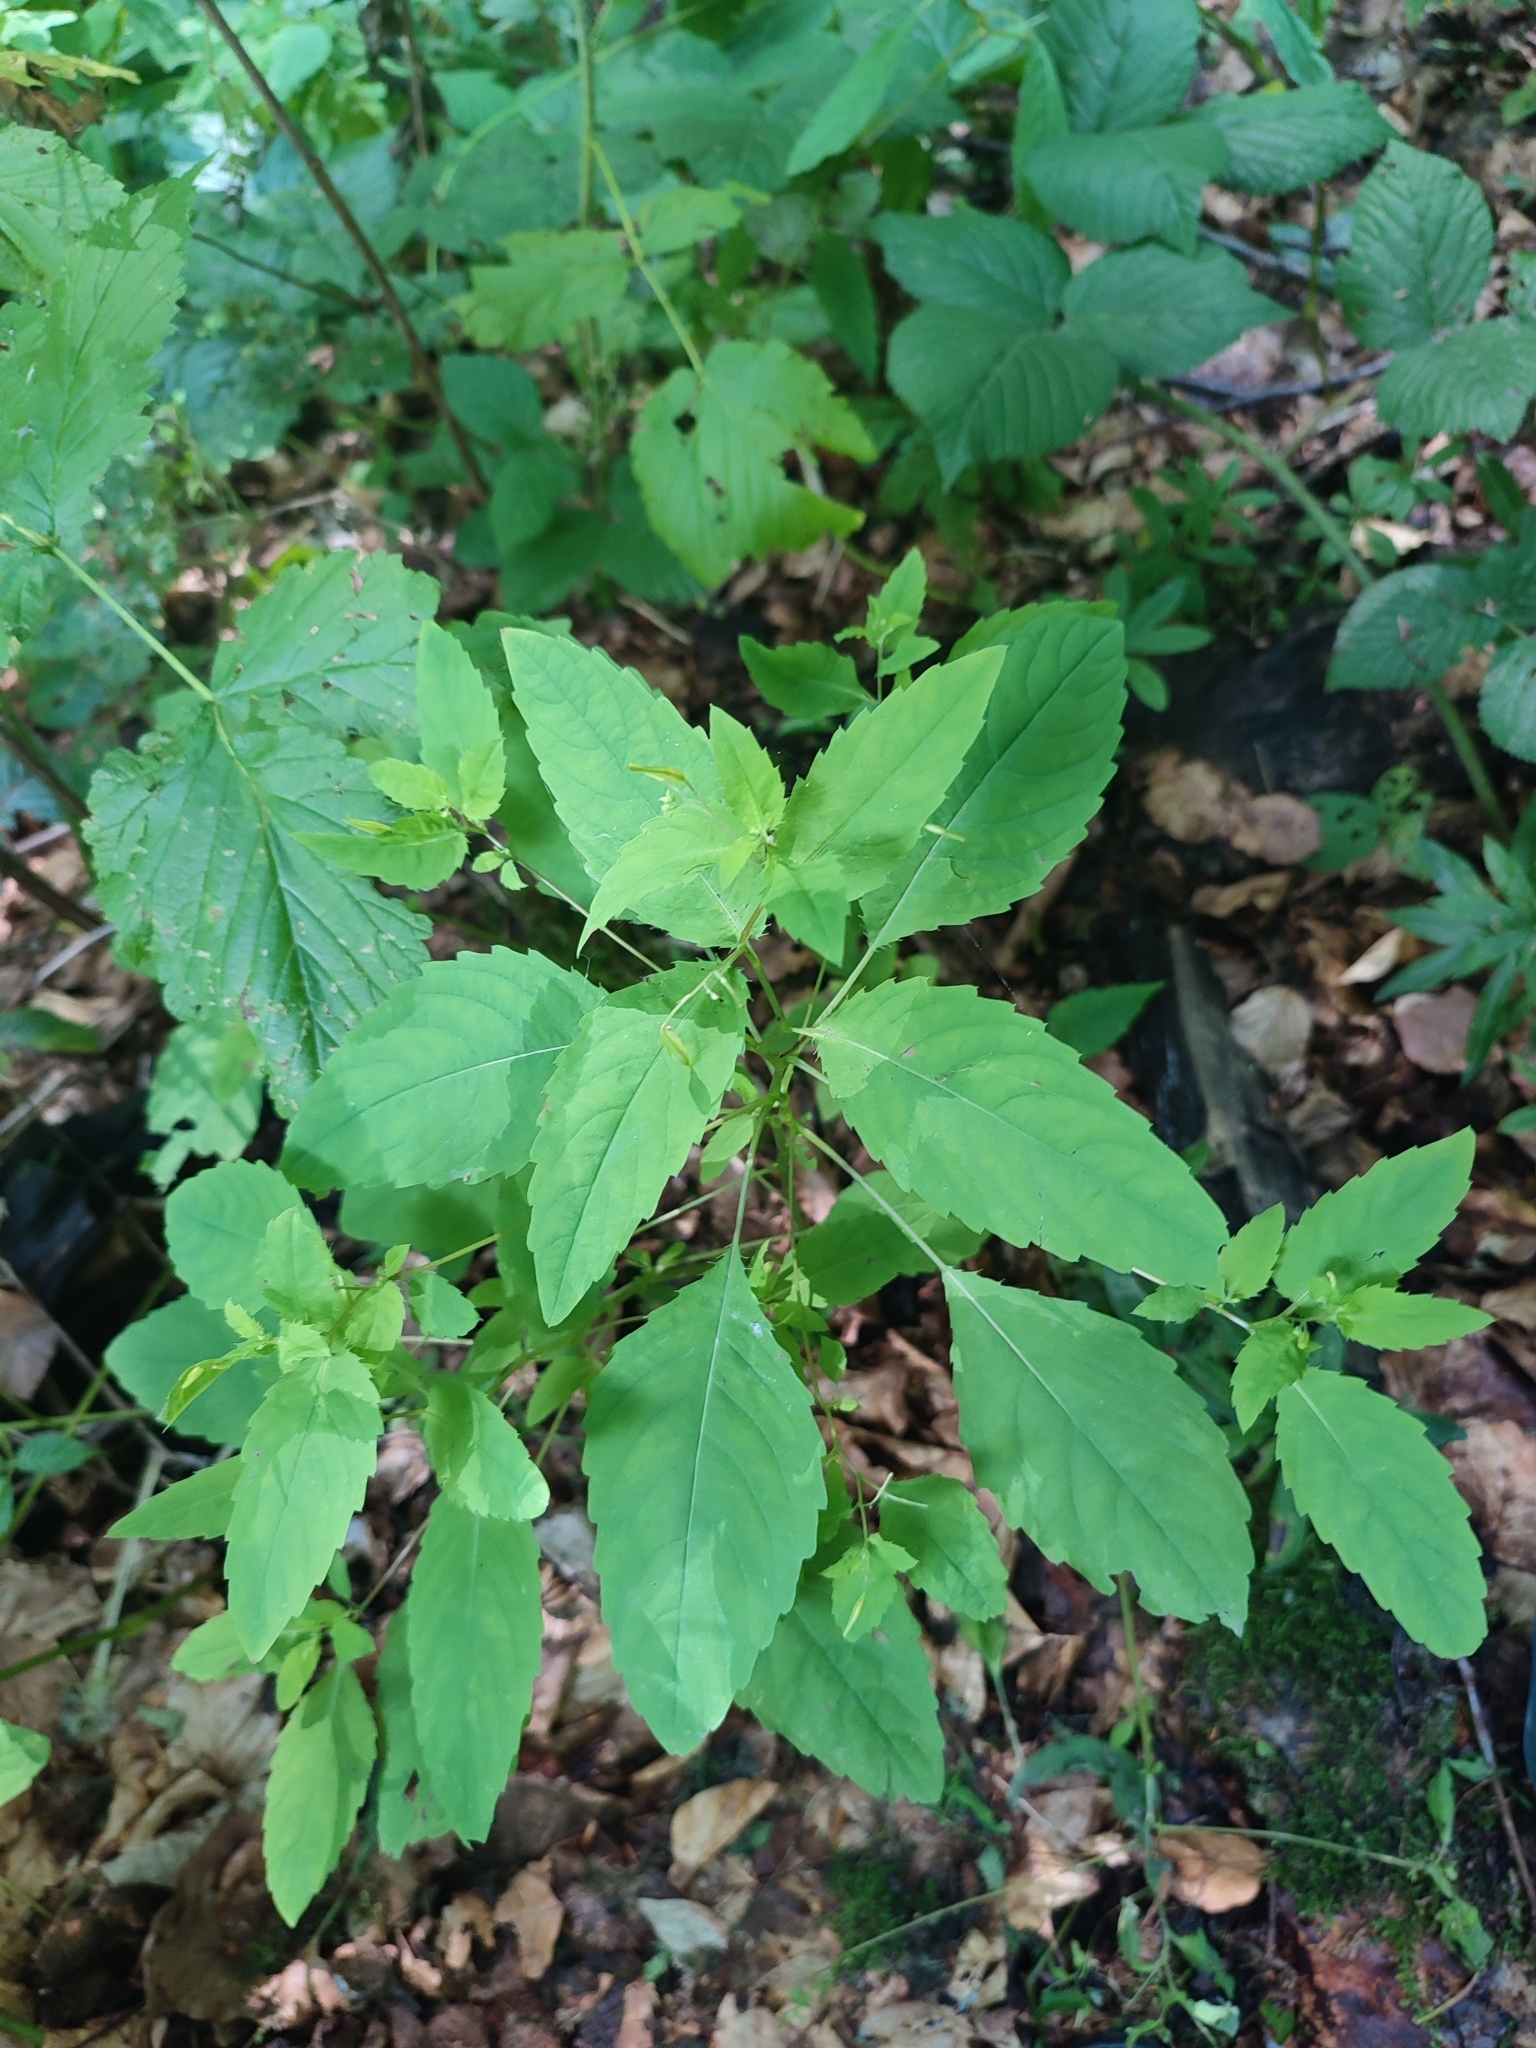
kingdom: Plantae
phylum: Tracheophyta
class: Magnoliopsida
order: Ericales
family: Balsaminaceae
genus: Impatiens
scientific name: Impatiens noli-tangere
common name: Touch-me-not balsam
